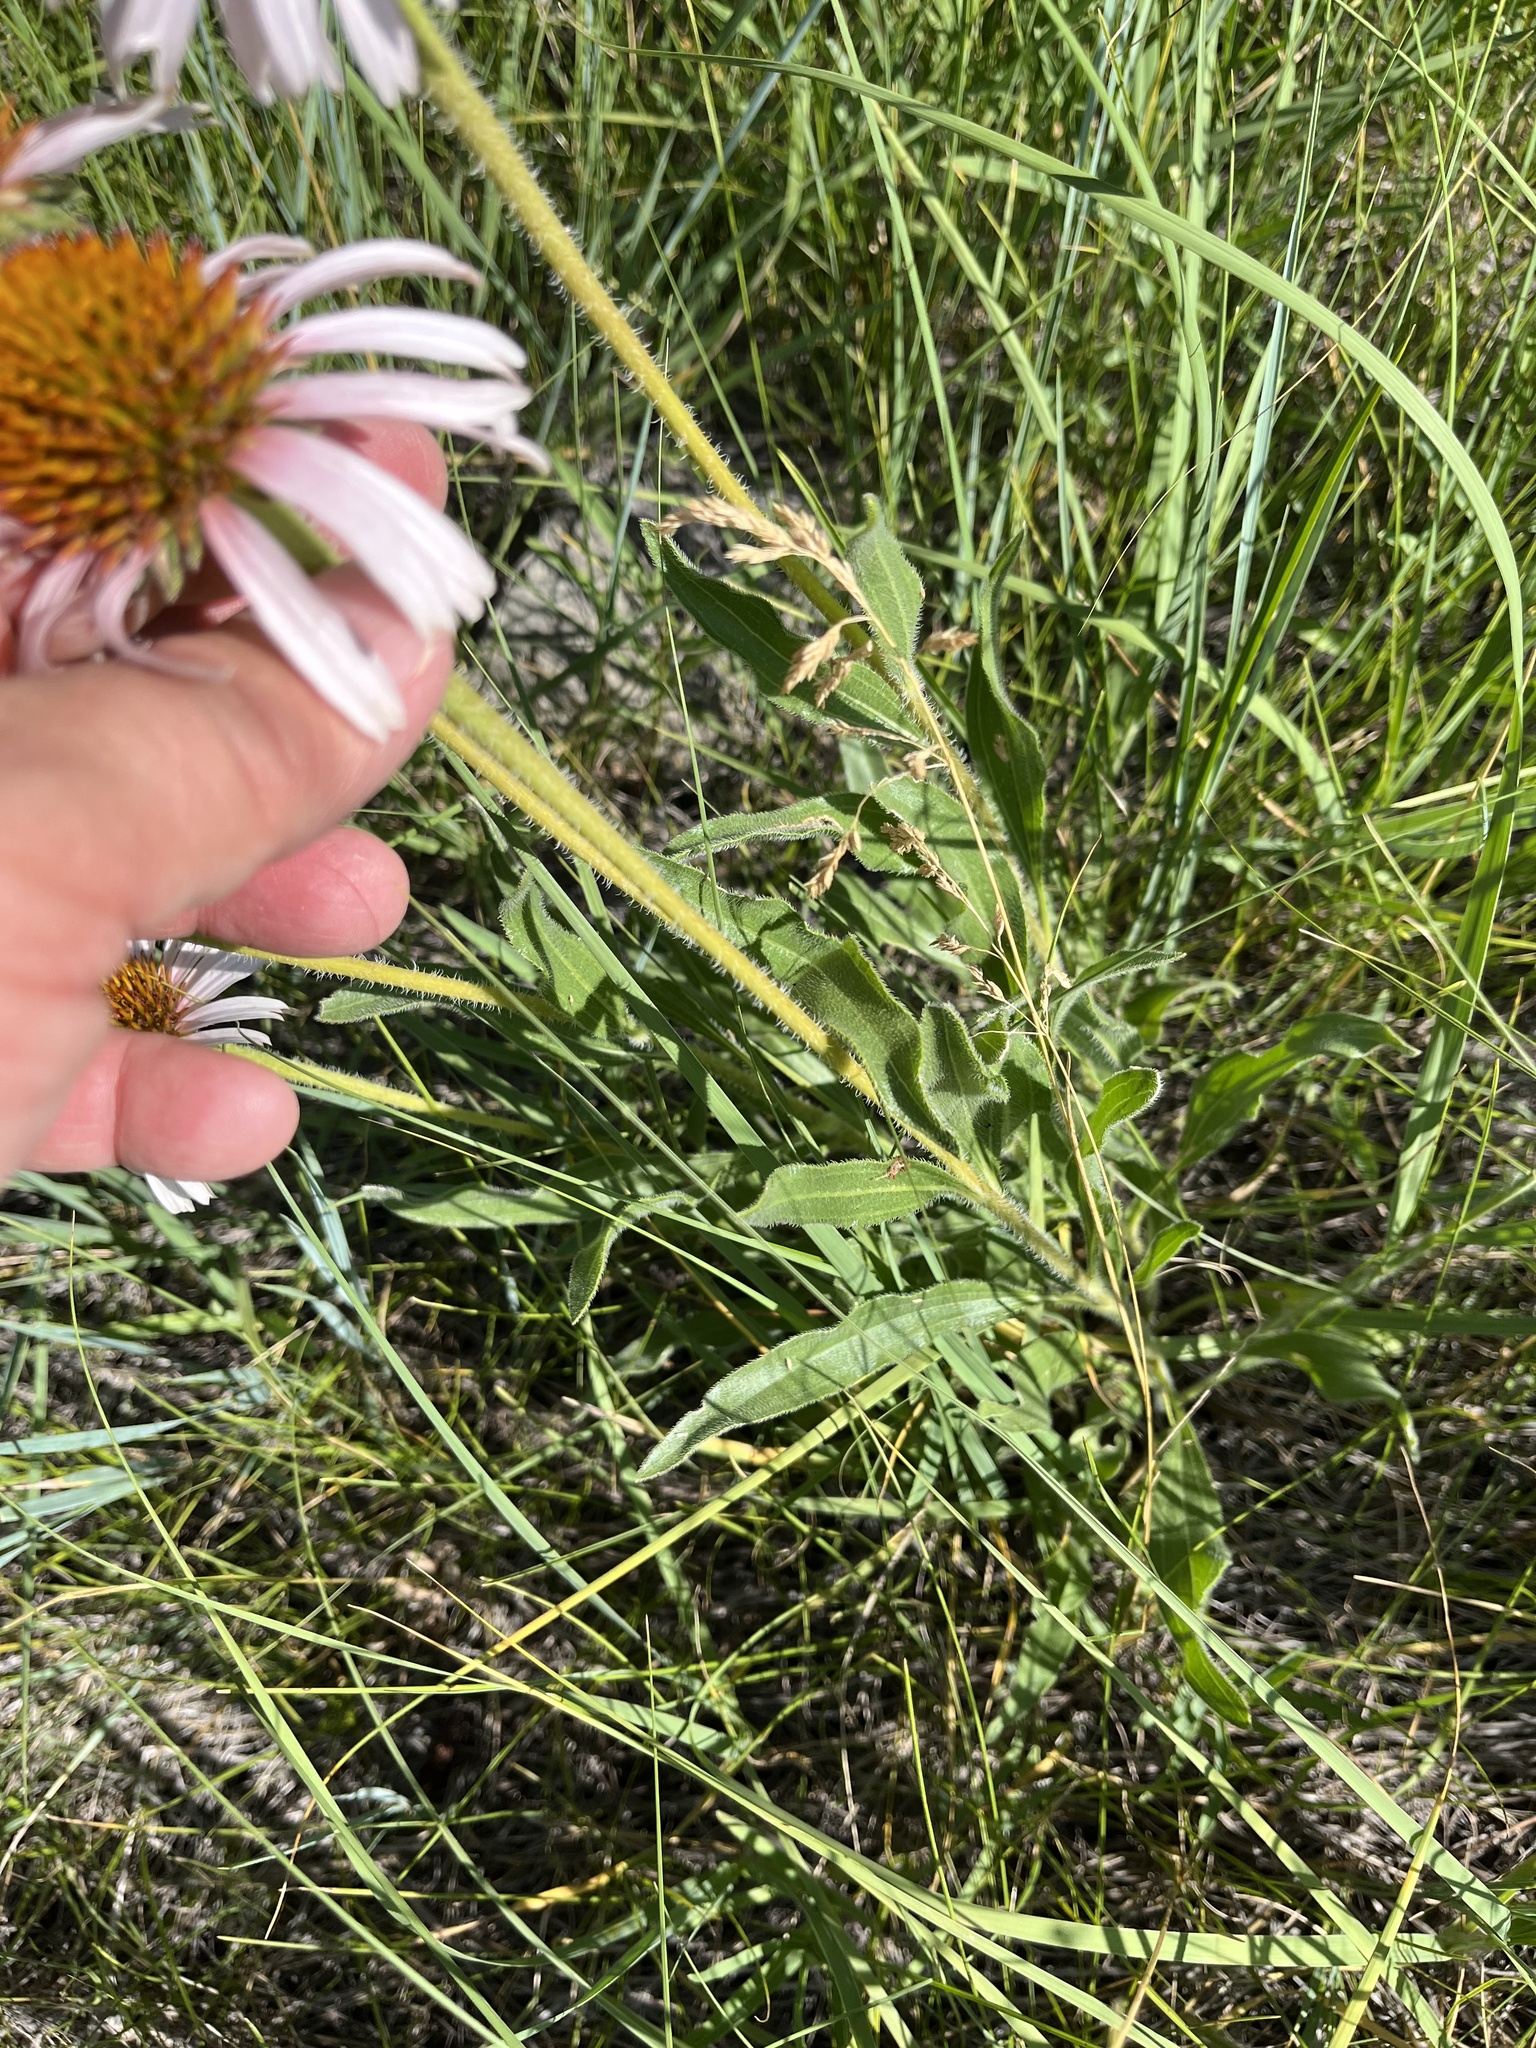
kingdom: Plantae
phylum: Tracheophyta
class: Magnoliopsida
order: Asterales
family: Asteraceae
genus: Echinacea
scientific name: Echinacea angustifolia
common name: Black-sampson echinacea
